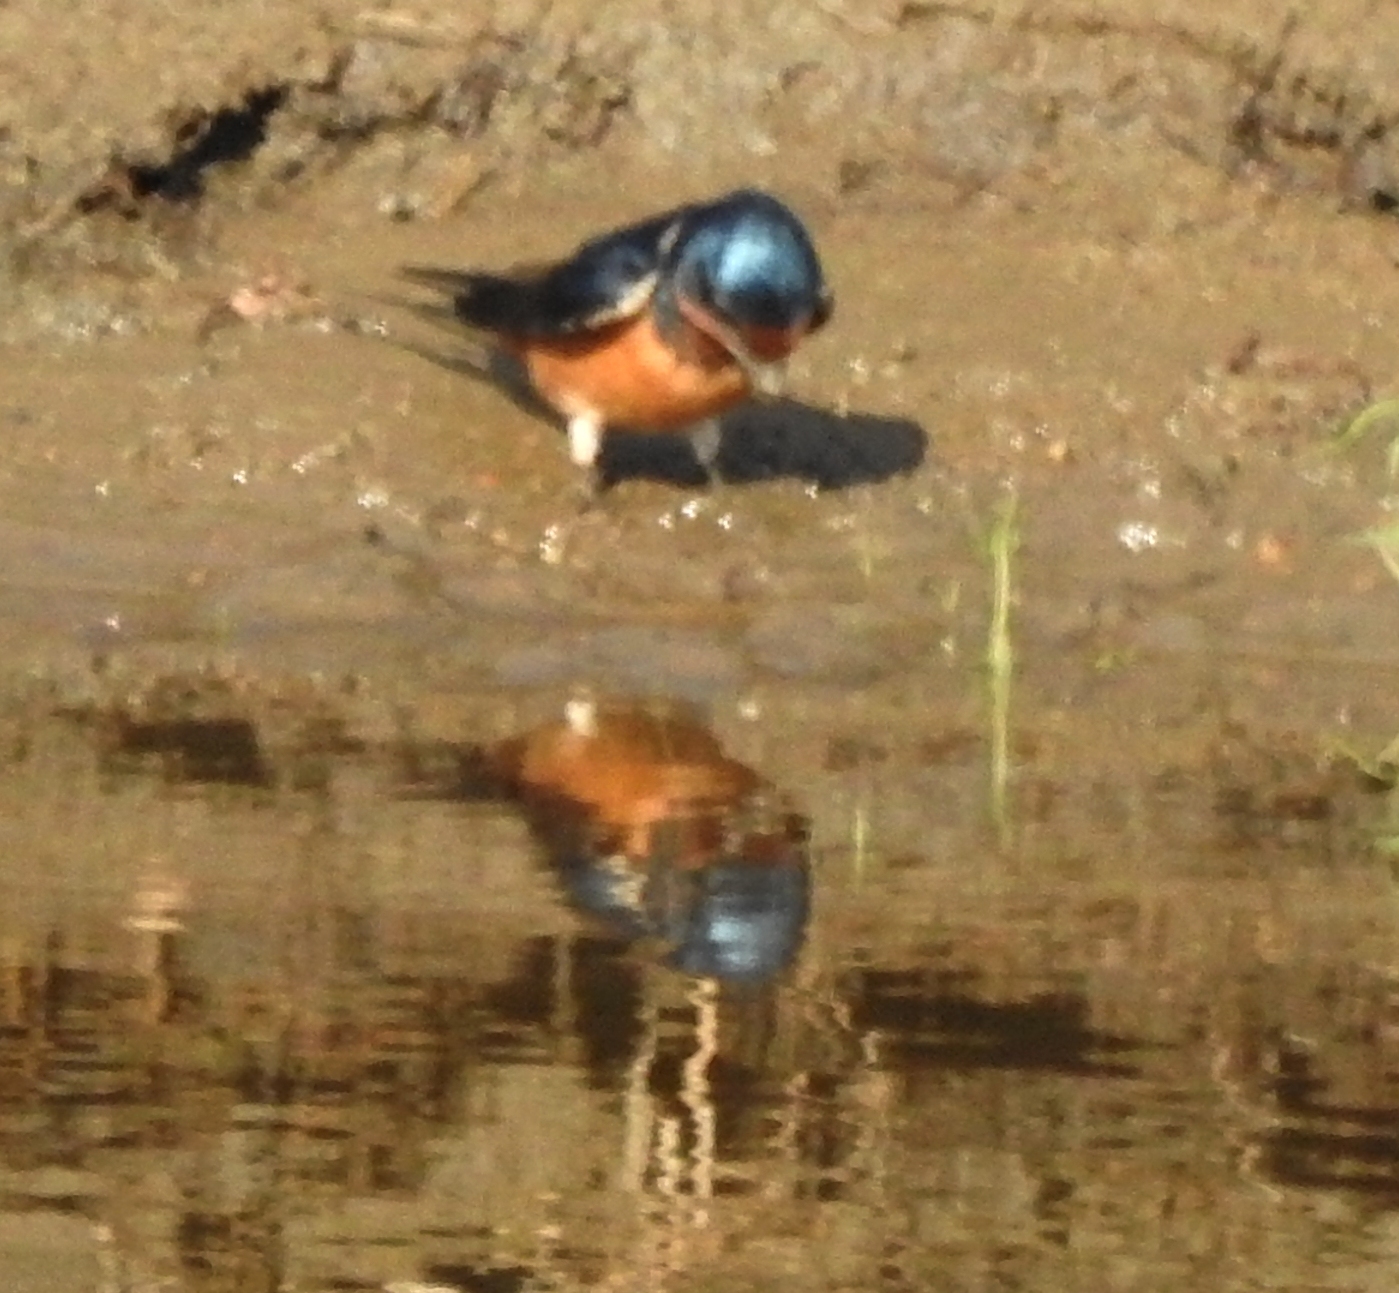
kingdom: Animalia
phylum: Chordata
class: Aves
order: Passeriformes
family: Hirundinidae
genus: Hirundo
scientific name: Hirundo rustica
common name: Barn swallow
